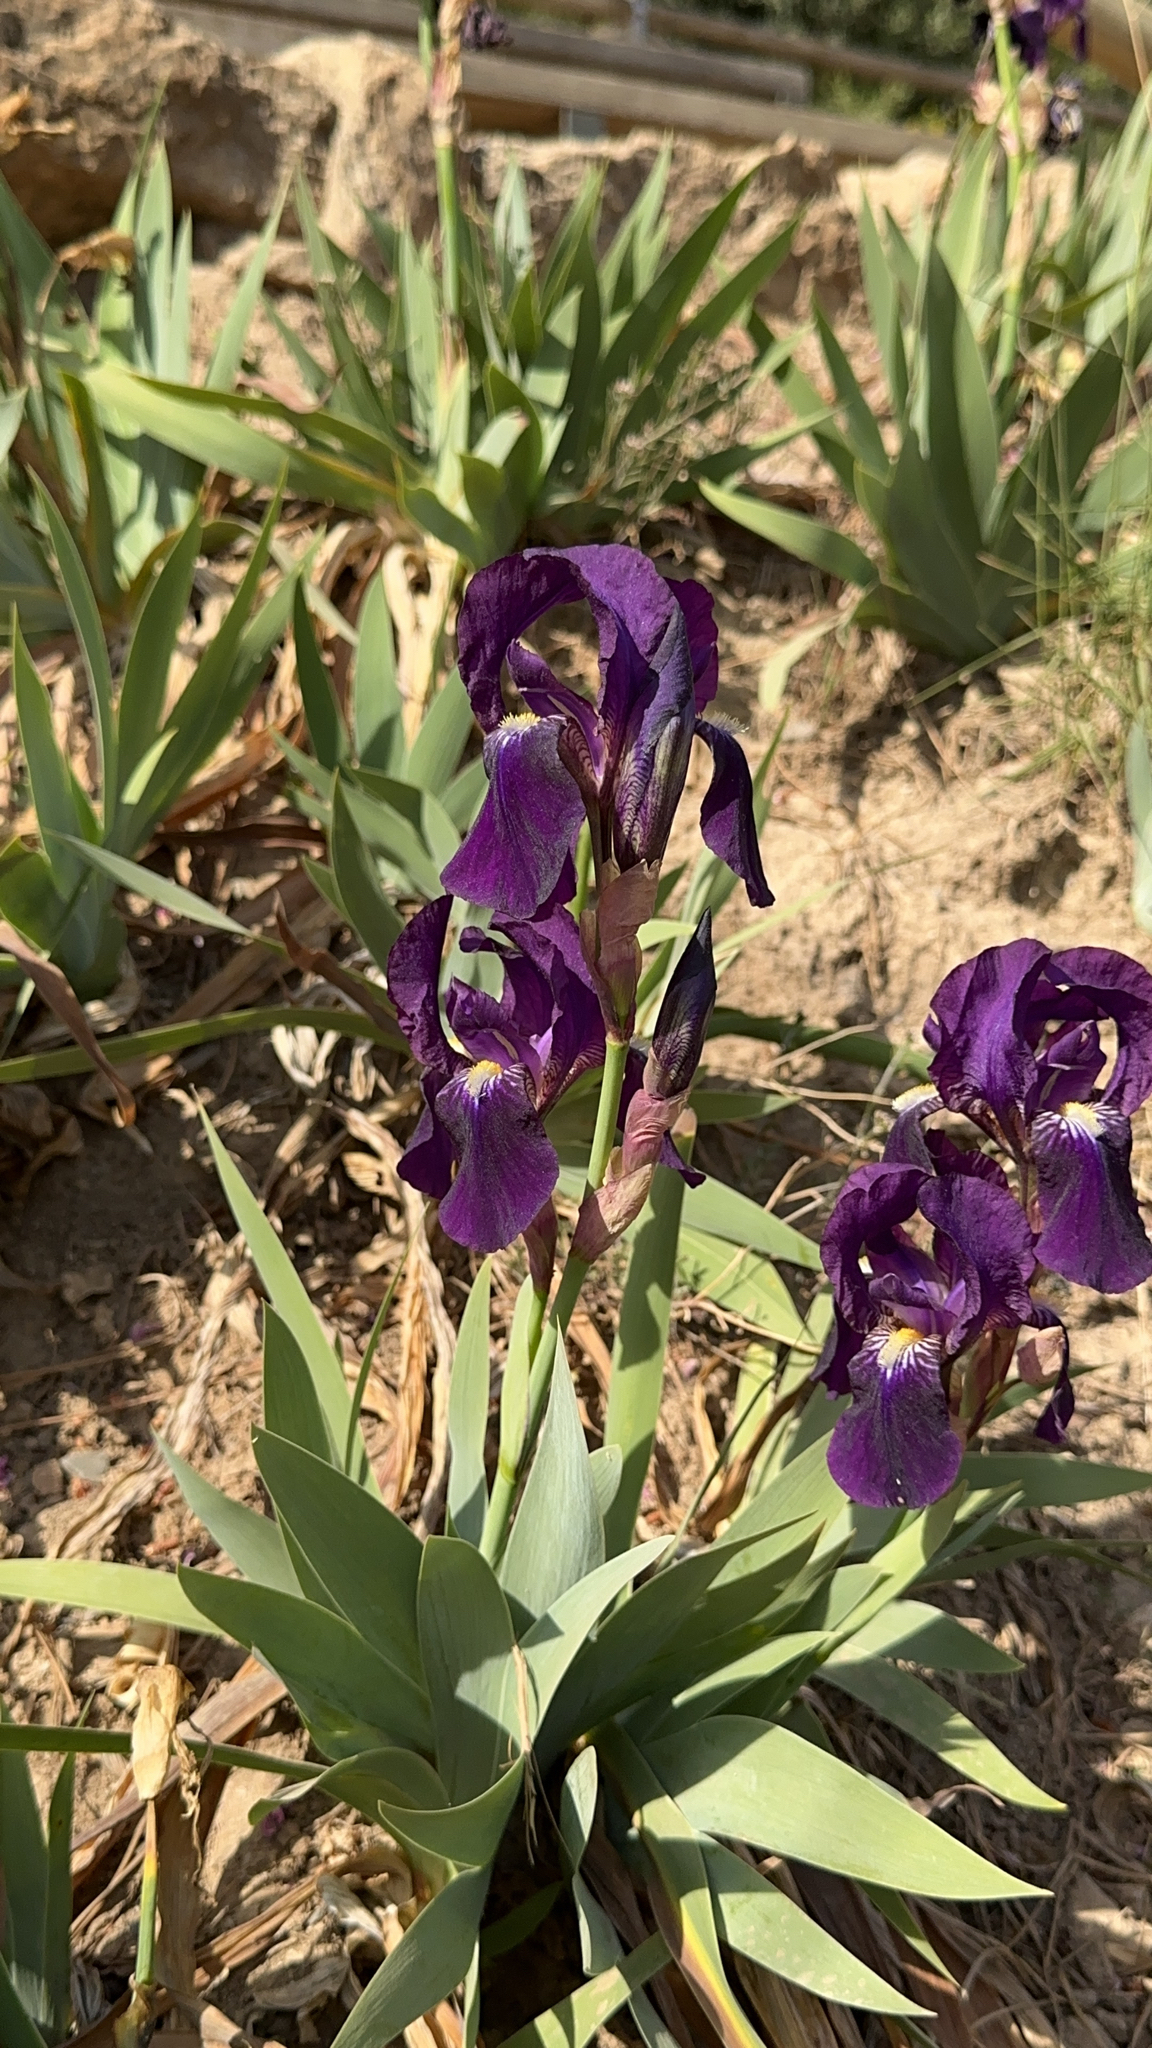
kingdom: Plantae
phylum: Tracheophyta
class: Liliopsida
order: Asparagales
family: Iridaceae
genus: Iris
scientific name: Iris germanica
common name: German iris
